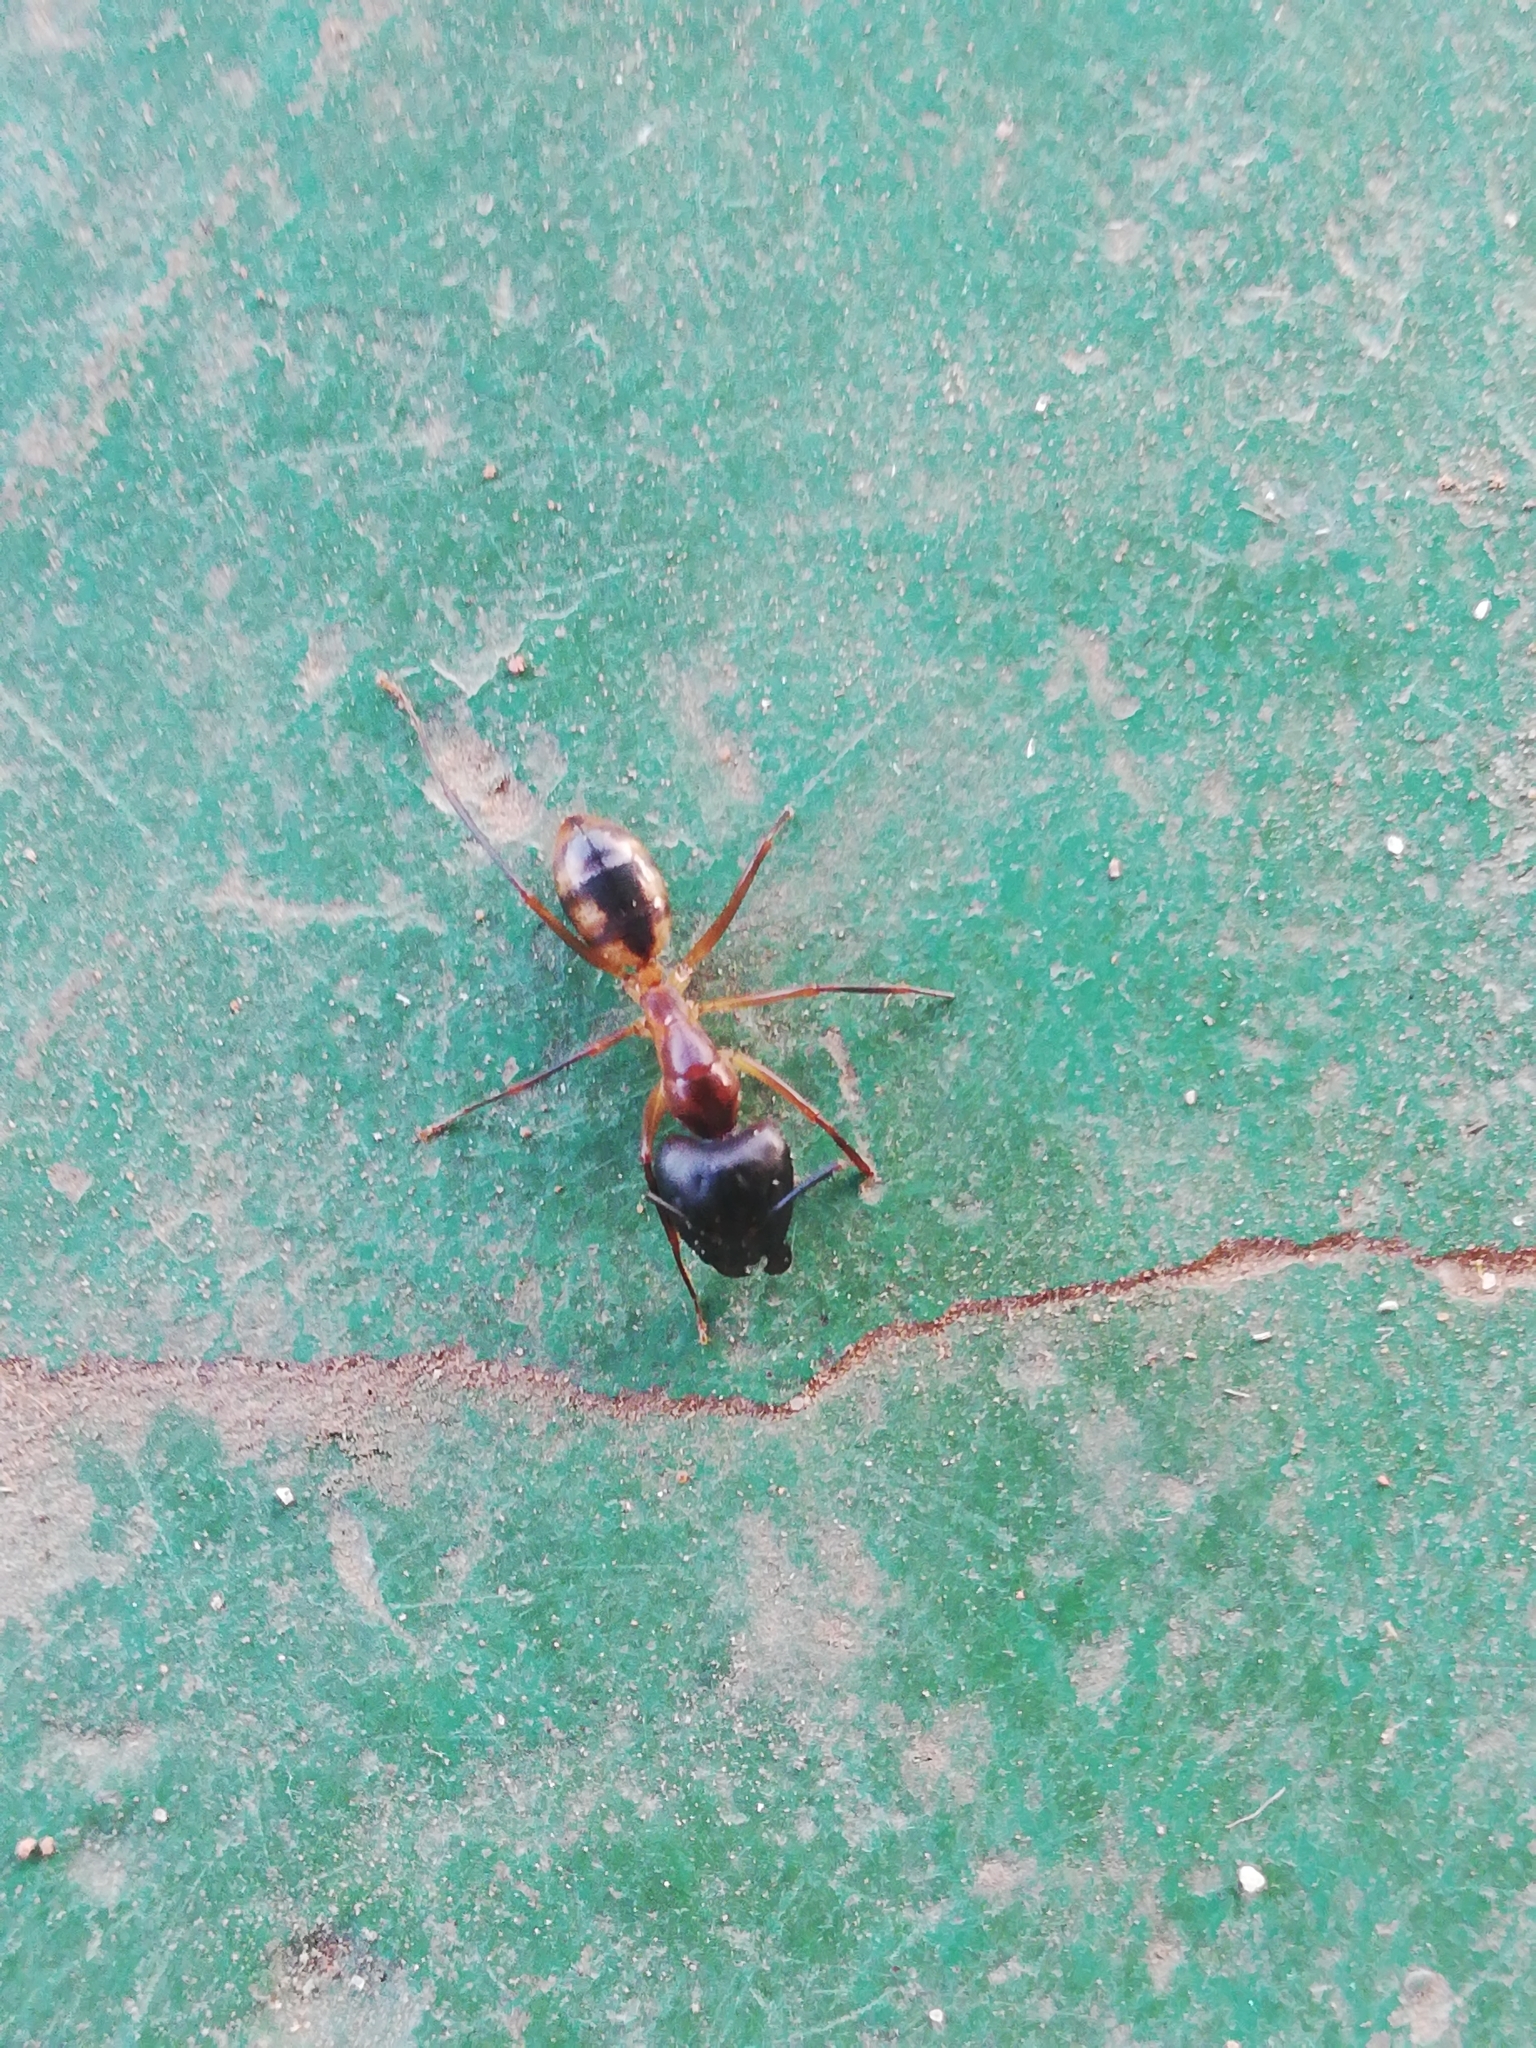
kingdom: Animalia
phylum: Arthropoda
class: Insecta
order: Hymenoptera
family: Formicidae
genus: Camponotus
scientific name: Camponotus maculatus
